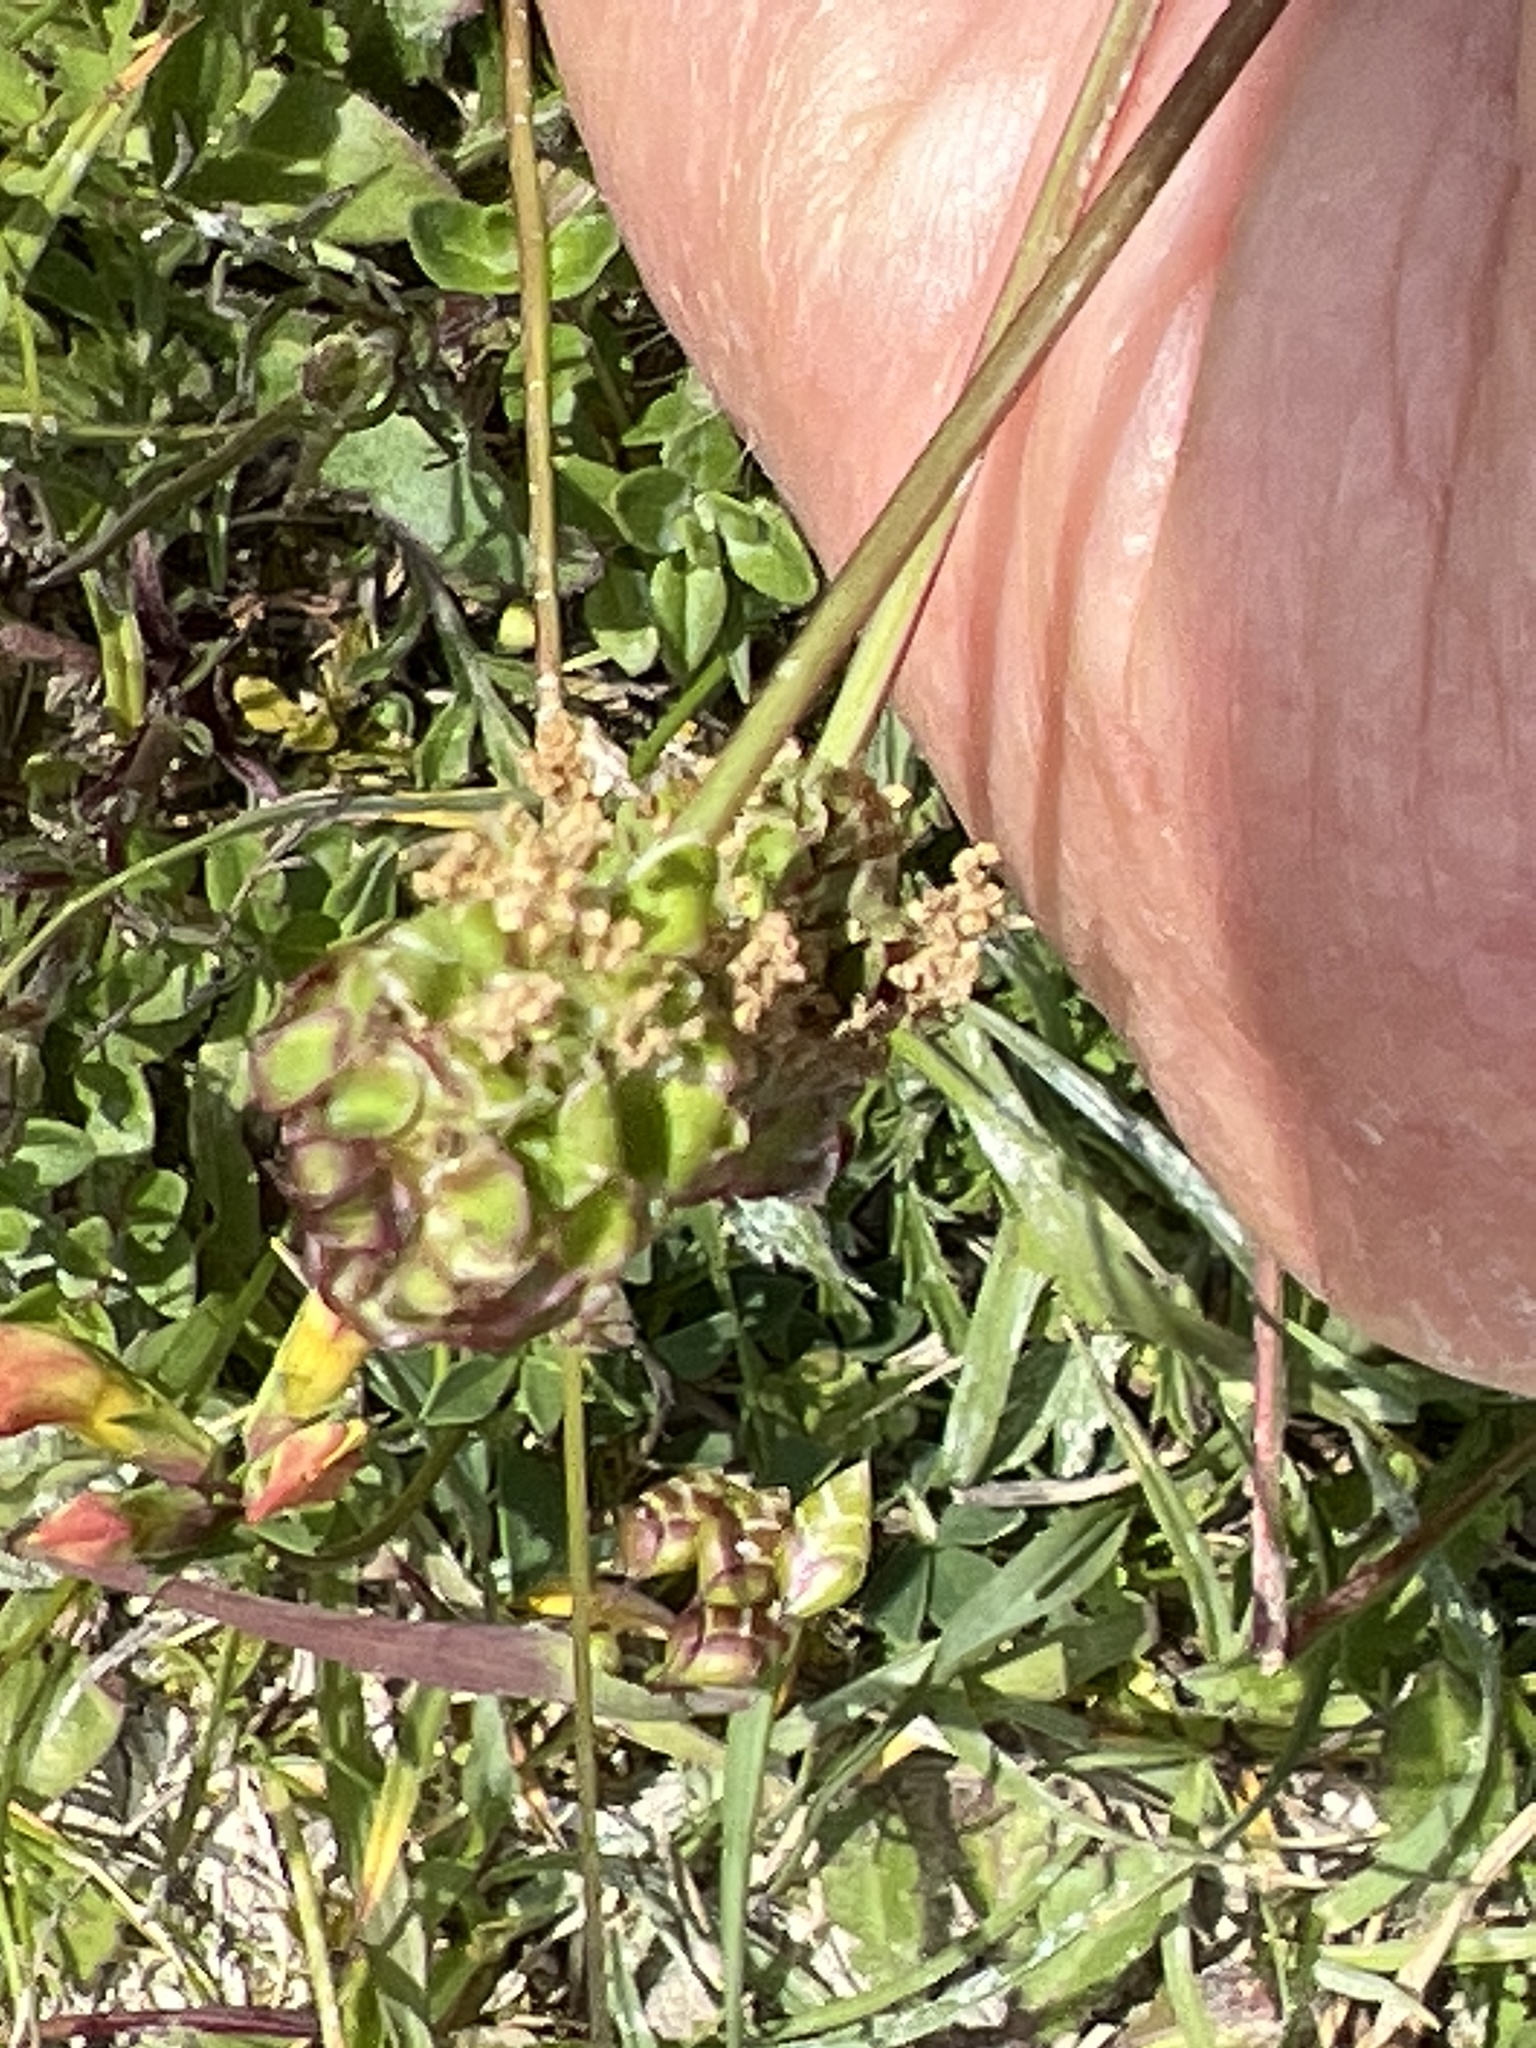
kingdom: Plantae
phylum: Tracheophyta
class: Magnoliopsida
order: Rosales
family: Rosaceae
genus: Poterium
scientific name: Poterium sanguisorba
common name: Salad burnet
